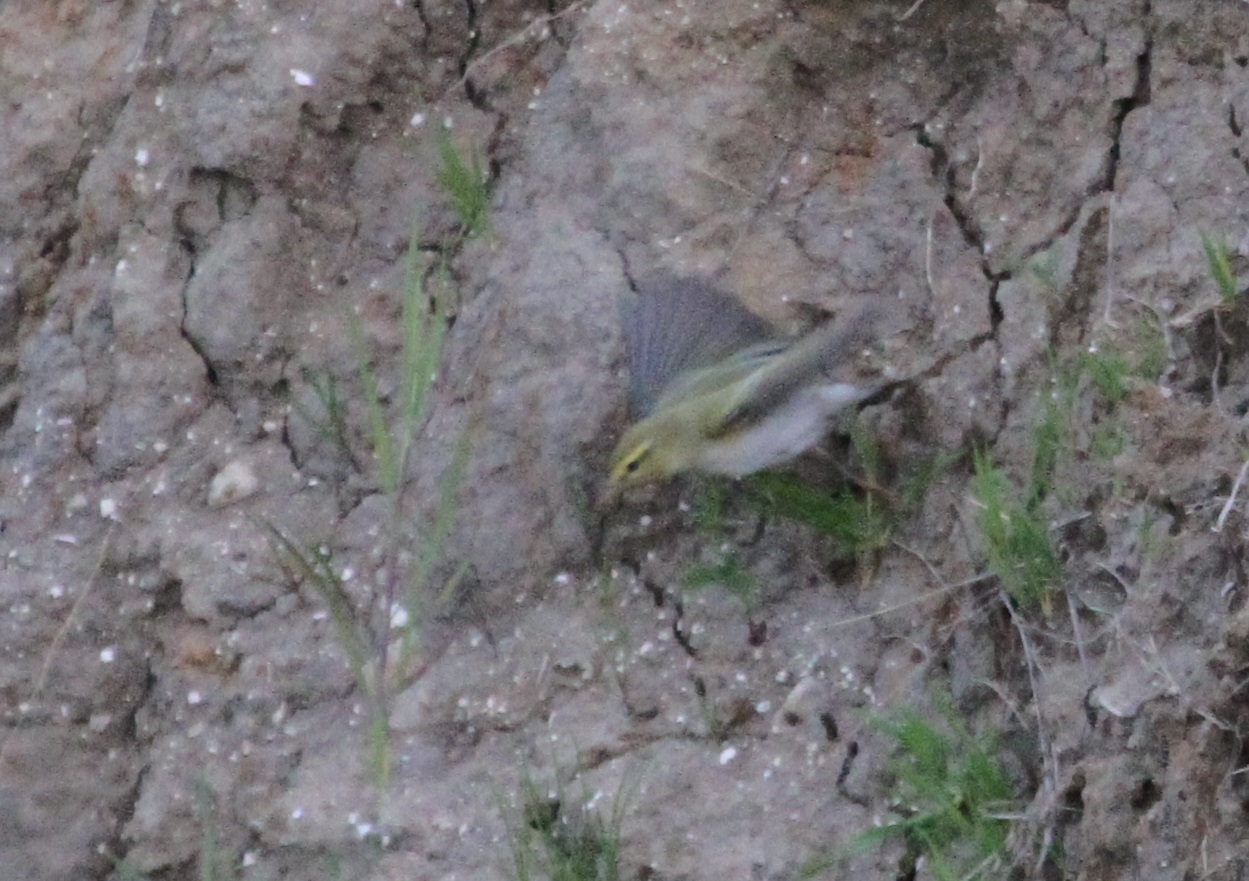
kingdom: Animalia
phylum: Chordata
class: Aves
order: Passeriformes
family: Phylloscopidae
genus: Phylloscopus
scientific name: Phylloscopus sibillatrix
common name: Wood warbler
